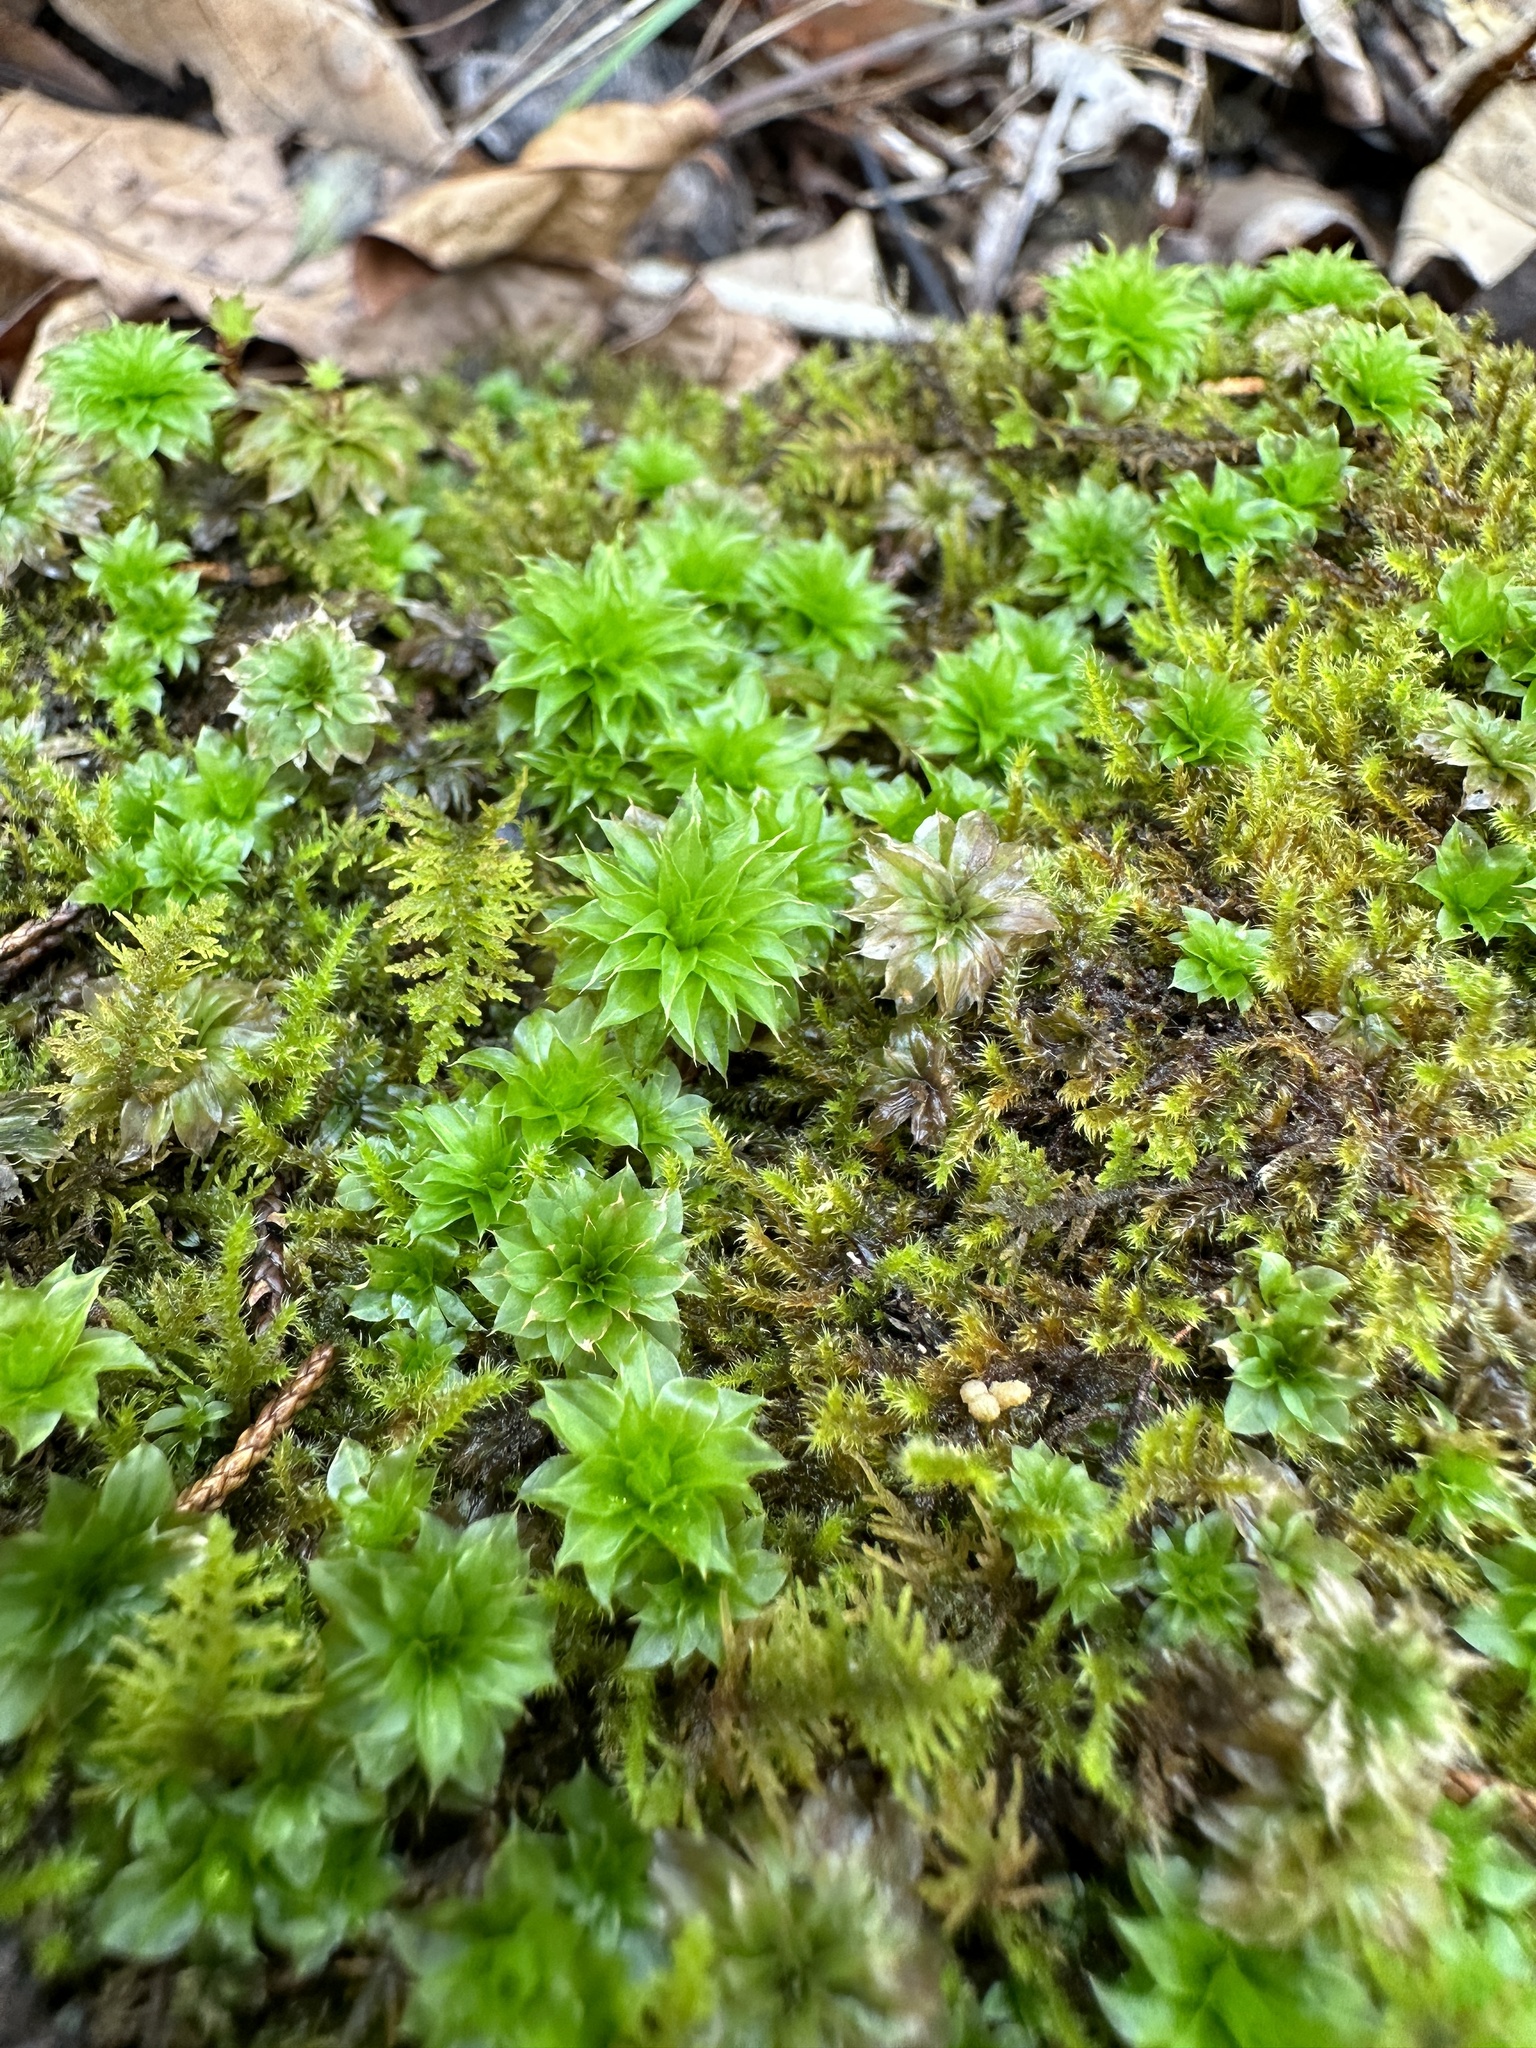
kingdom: Plantae
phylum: Bryophyta
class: Bryopsida
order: Bryales
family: Bryaceae
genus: Rhodobryum
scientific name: Rhodobryum ontariense
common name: Ontario rhodobryum moss
